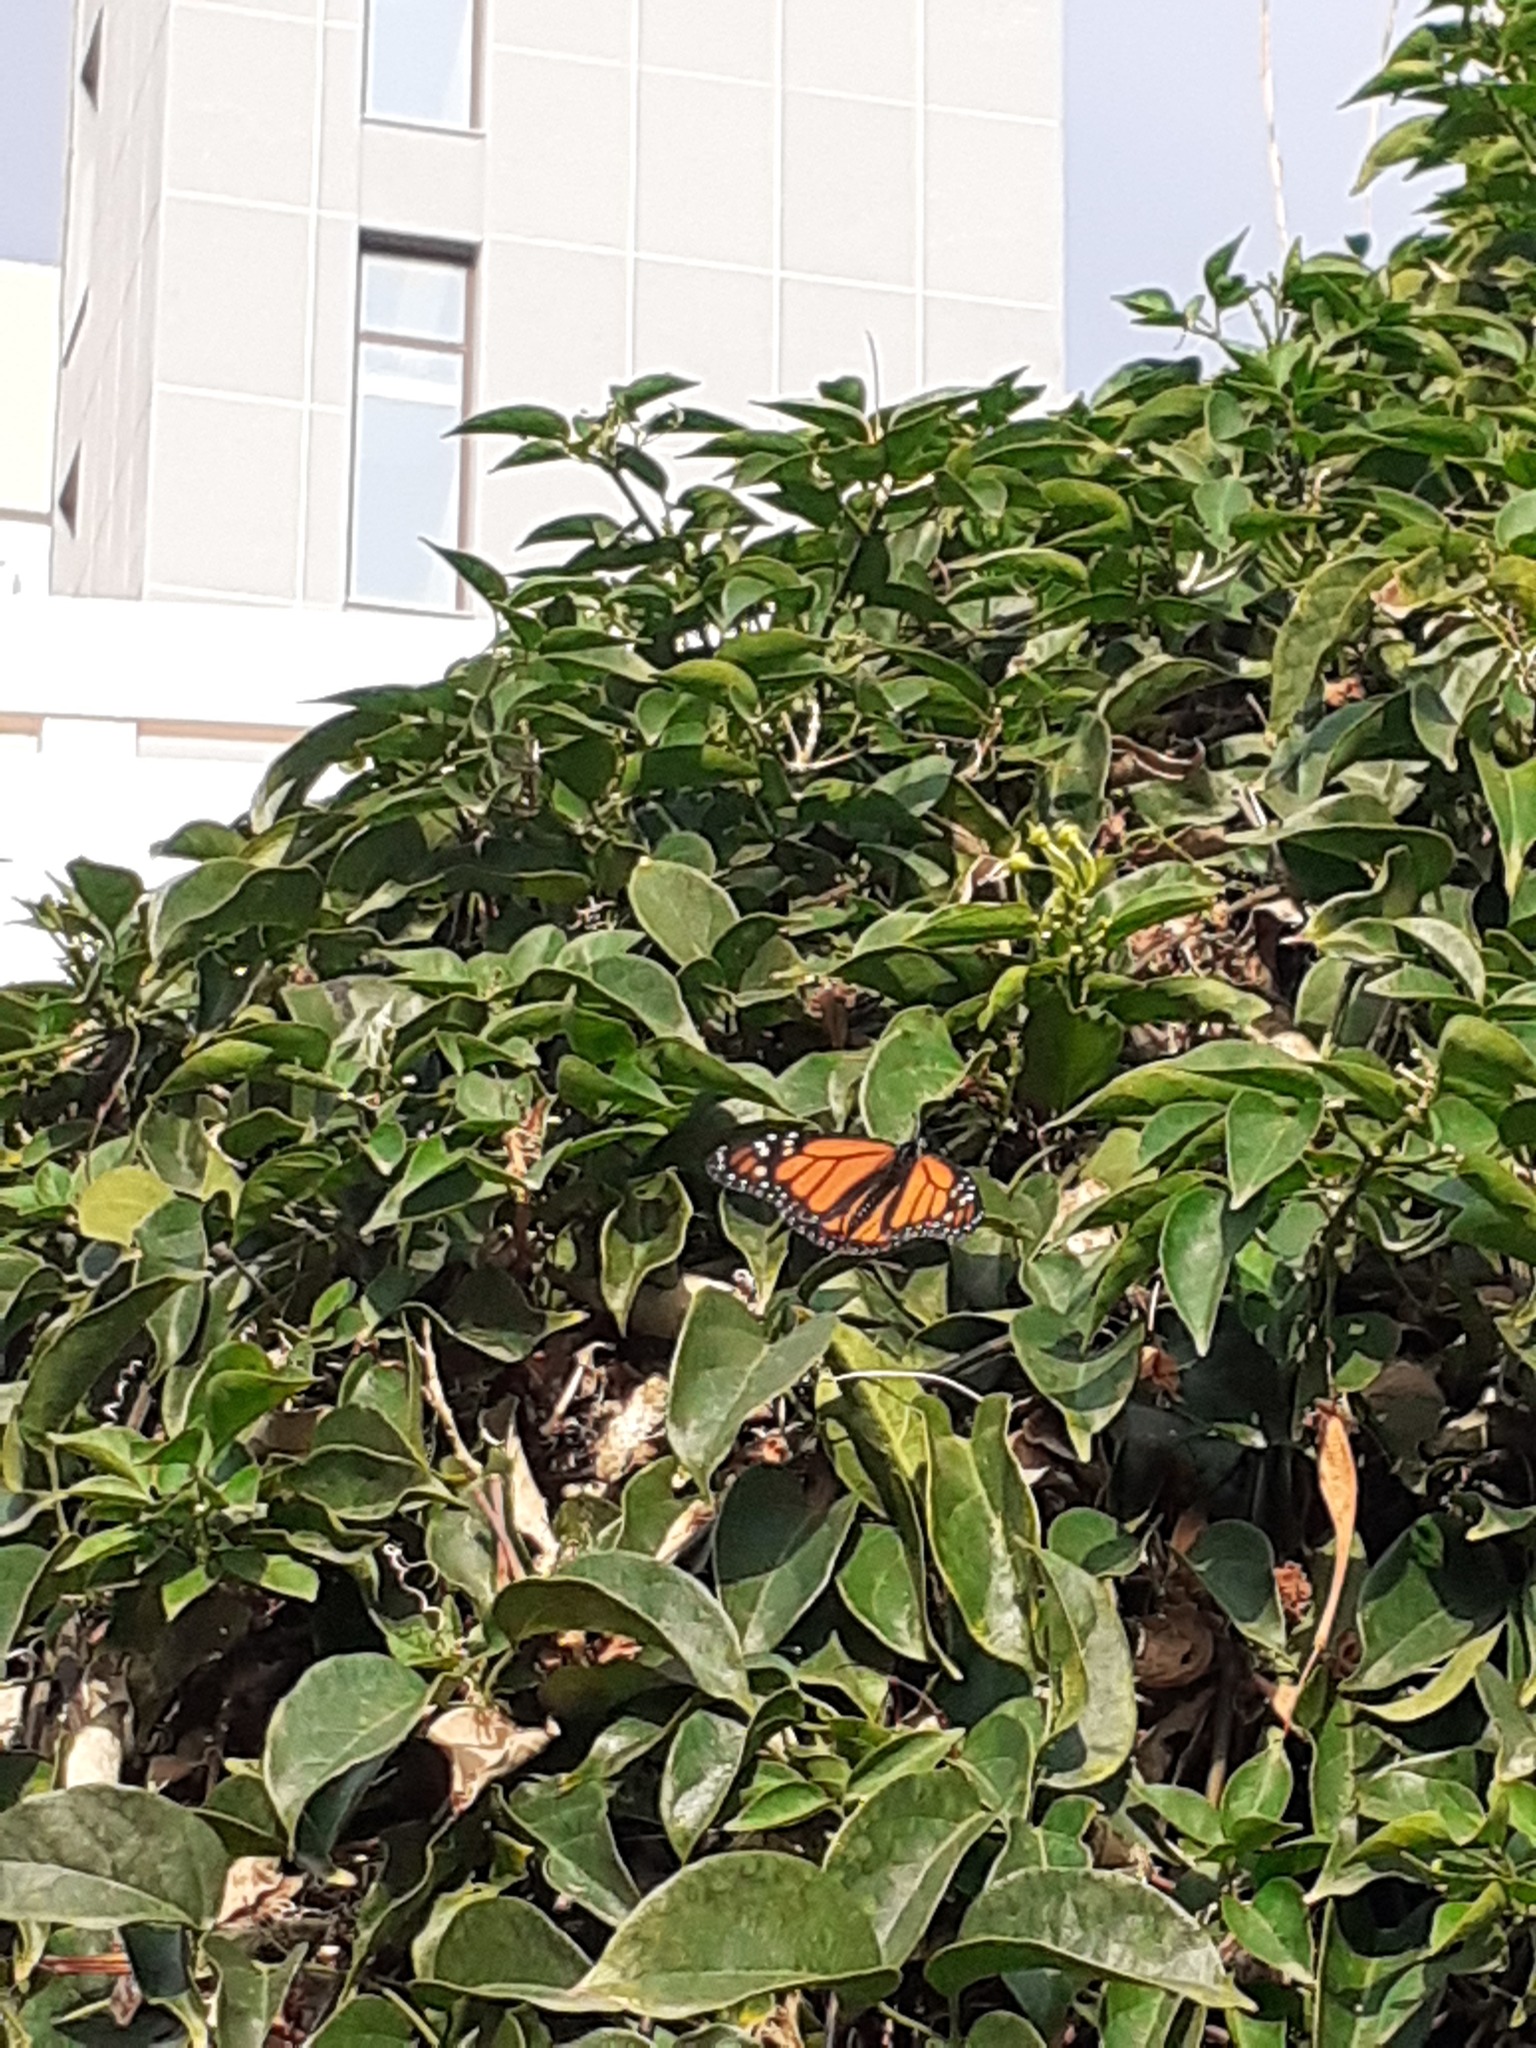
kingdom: Animalia
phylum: Arthropoda
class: Insecta
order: Lepidoptera
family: Nymphalidae
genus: Danaus
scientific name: Danaus plexippus
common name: Monarch
